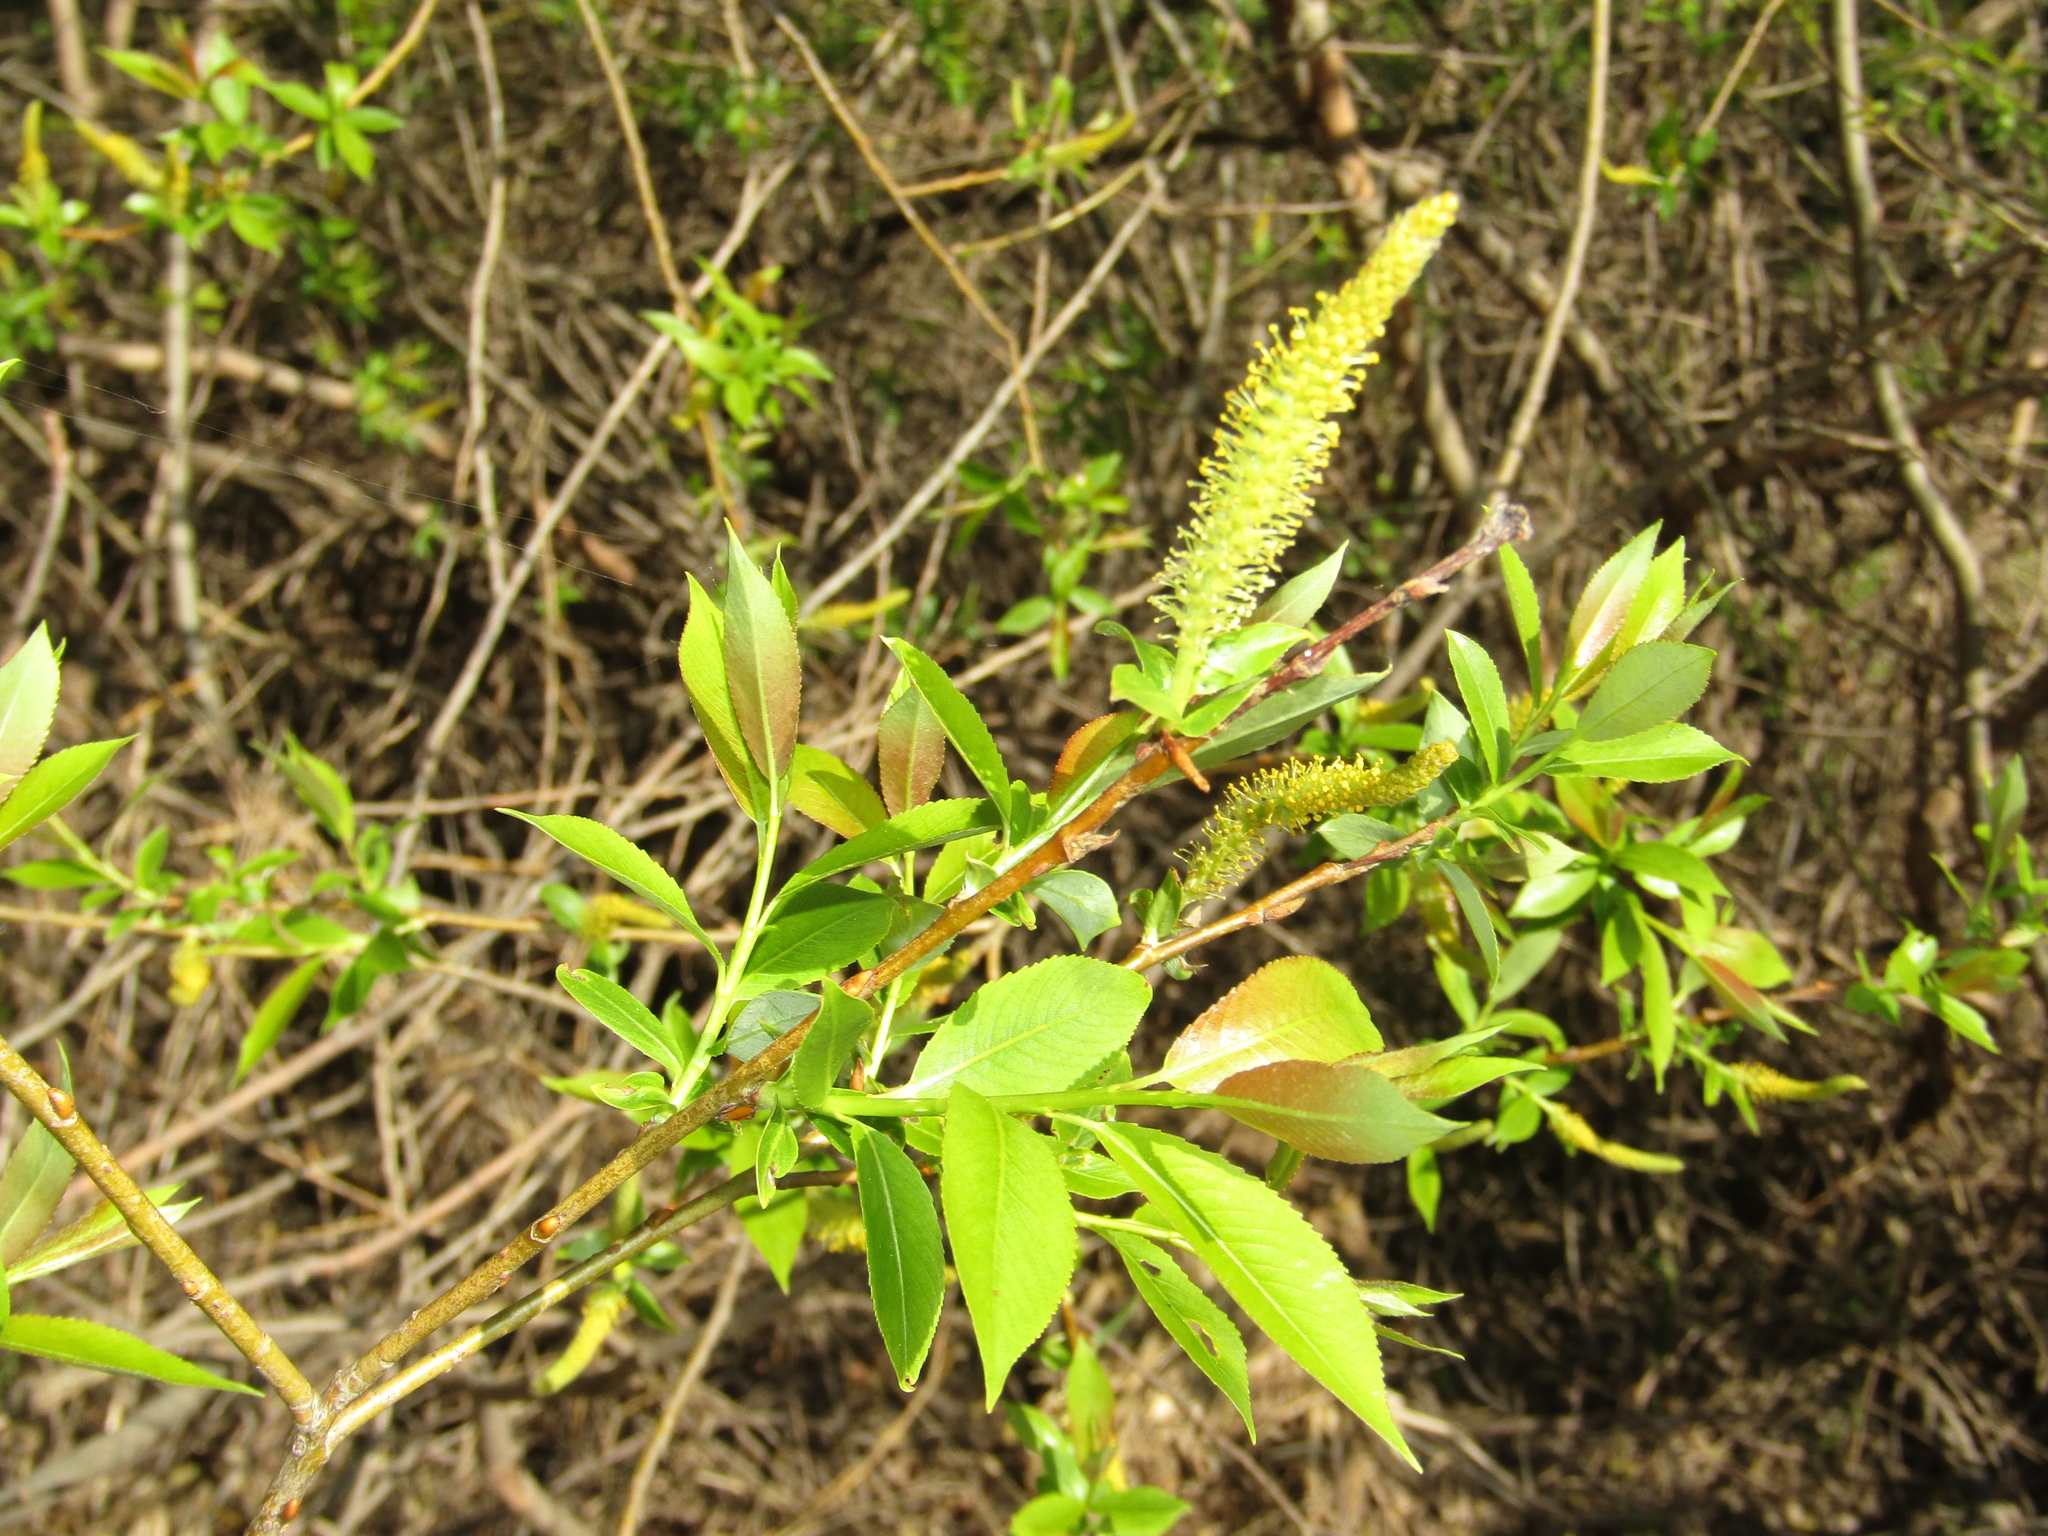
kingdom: Plantae
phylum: Tracheophyta
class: Magnoliopsida
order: Malpighiales
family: Salicaceae
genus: Salix
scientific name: Salix triandra
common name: Almond willow
